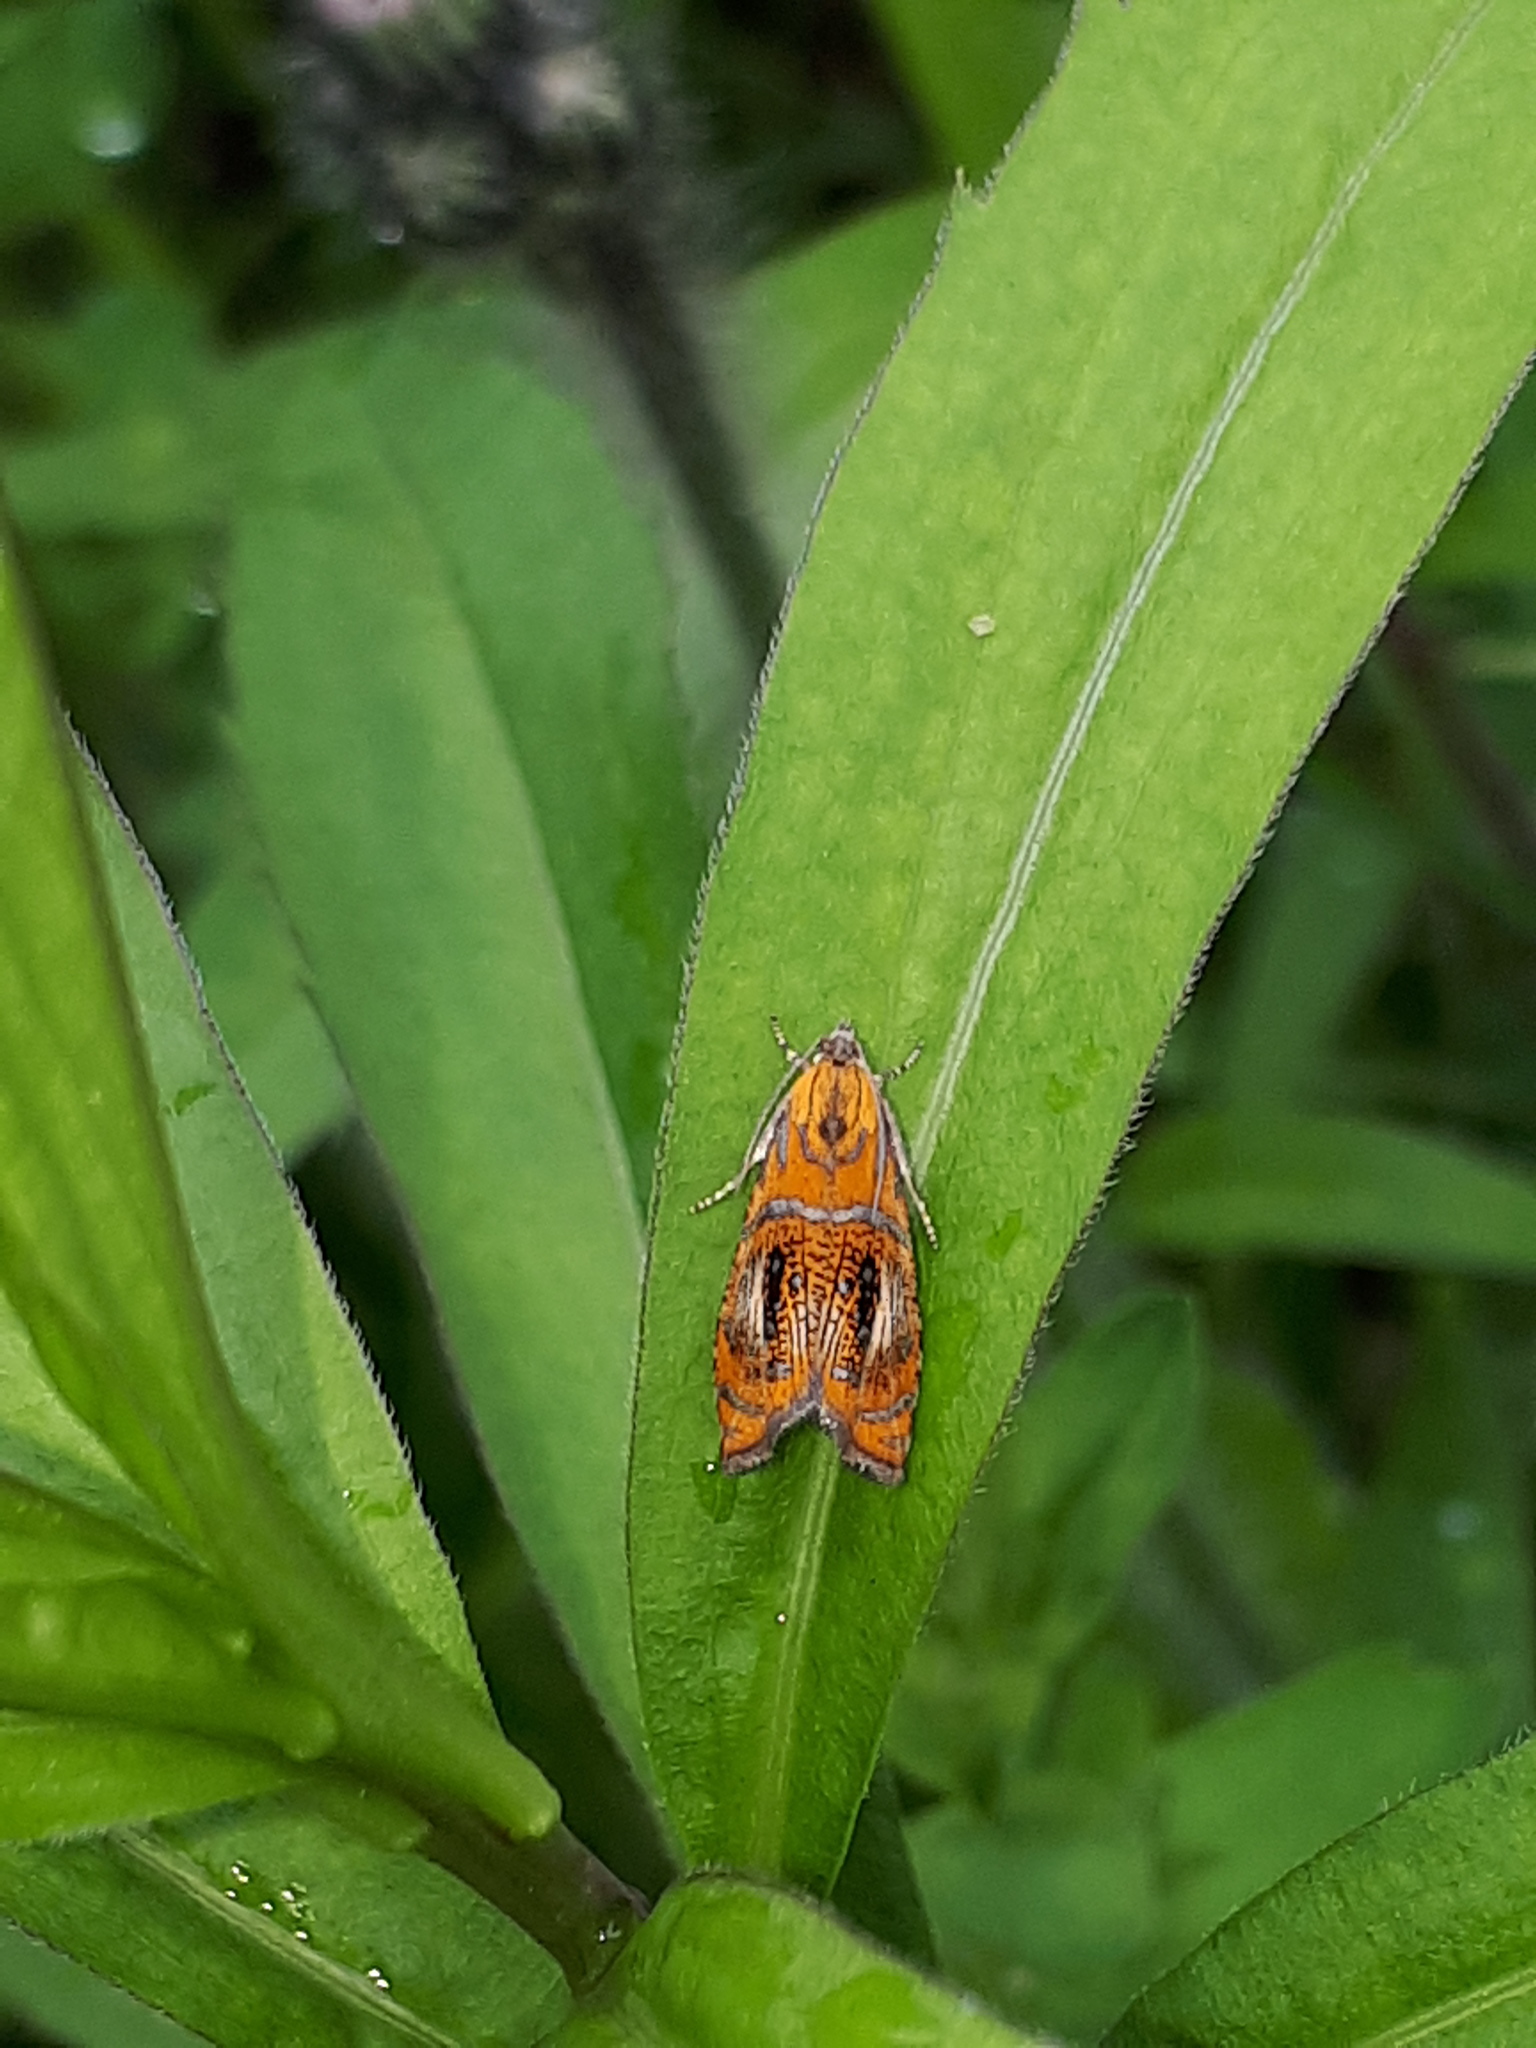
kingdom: Animalia
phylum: Arthropoda
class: Insecta
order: Lepidoptera
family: Tortricidae
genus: Olethreutes
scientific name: Olethreutes arcuella
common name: Arched marble
